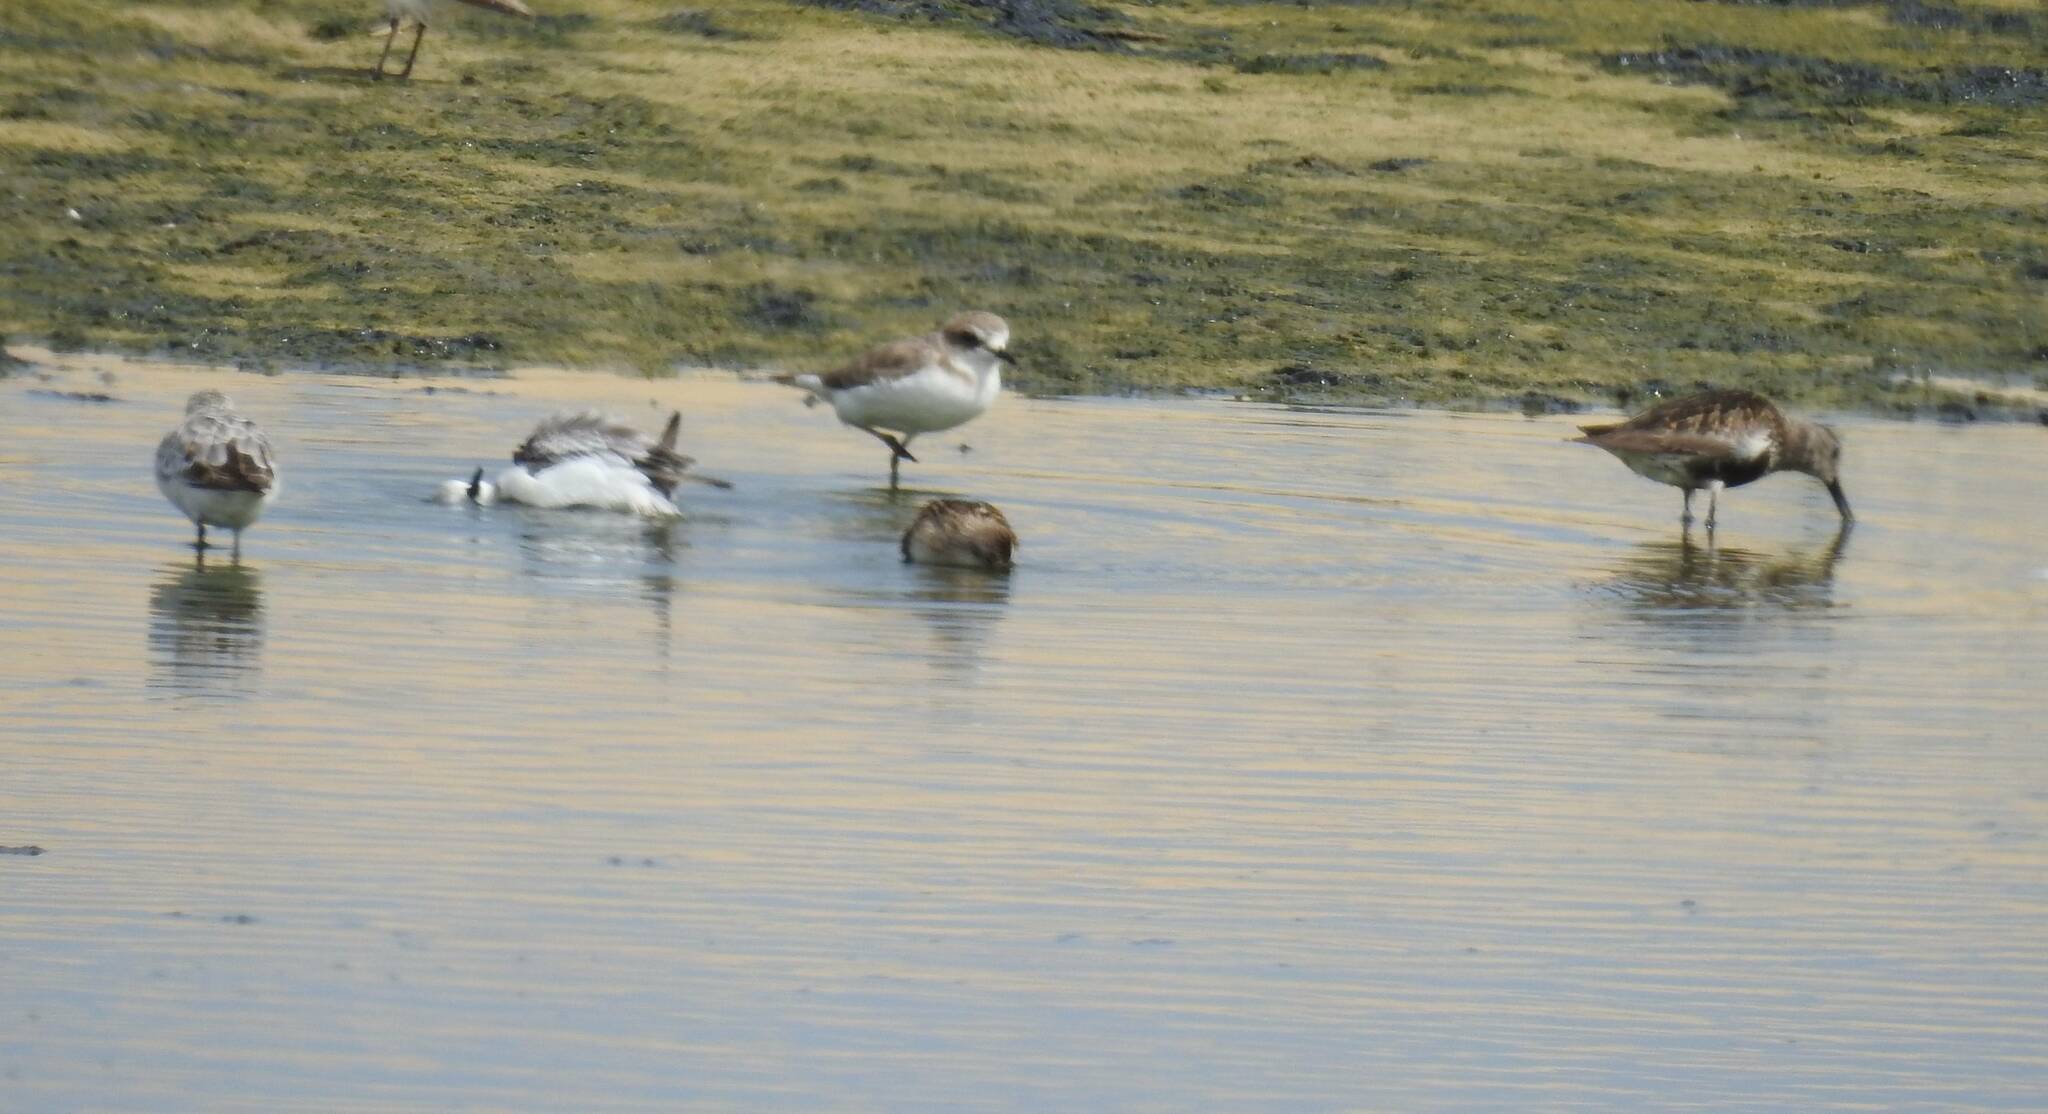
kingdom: Animalia
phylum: Chordata
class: Aves
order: Charadriiformes
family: Scolopacidae
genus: Calidris
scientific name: Calidris alpina
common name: Dunlin
